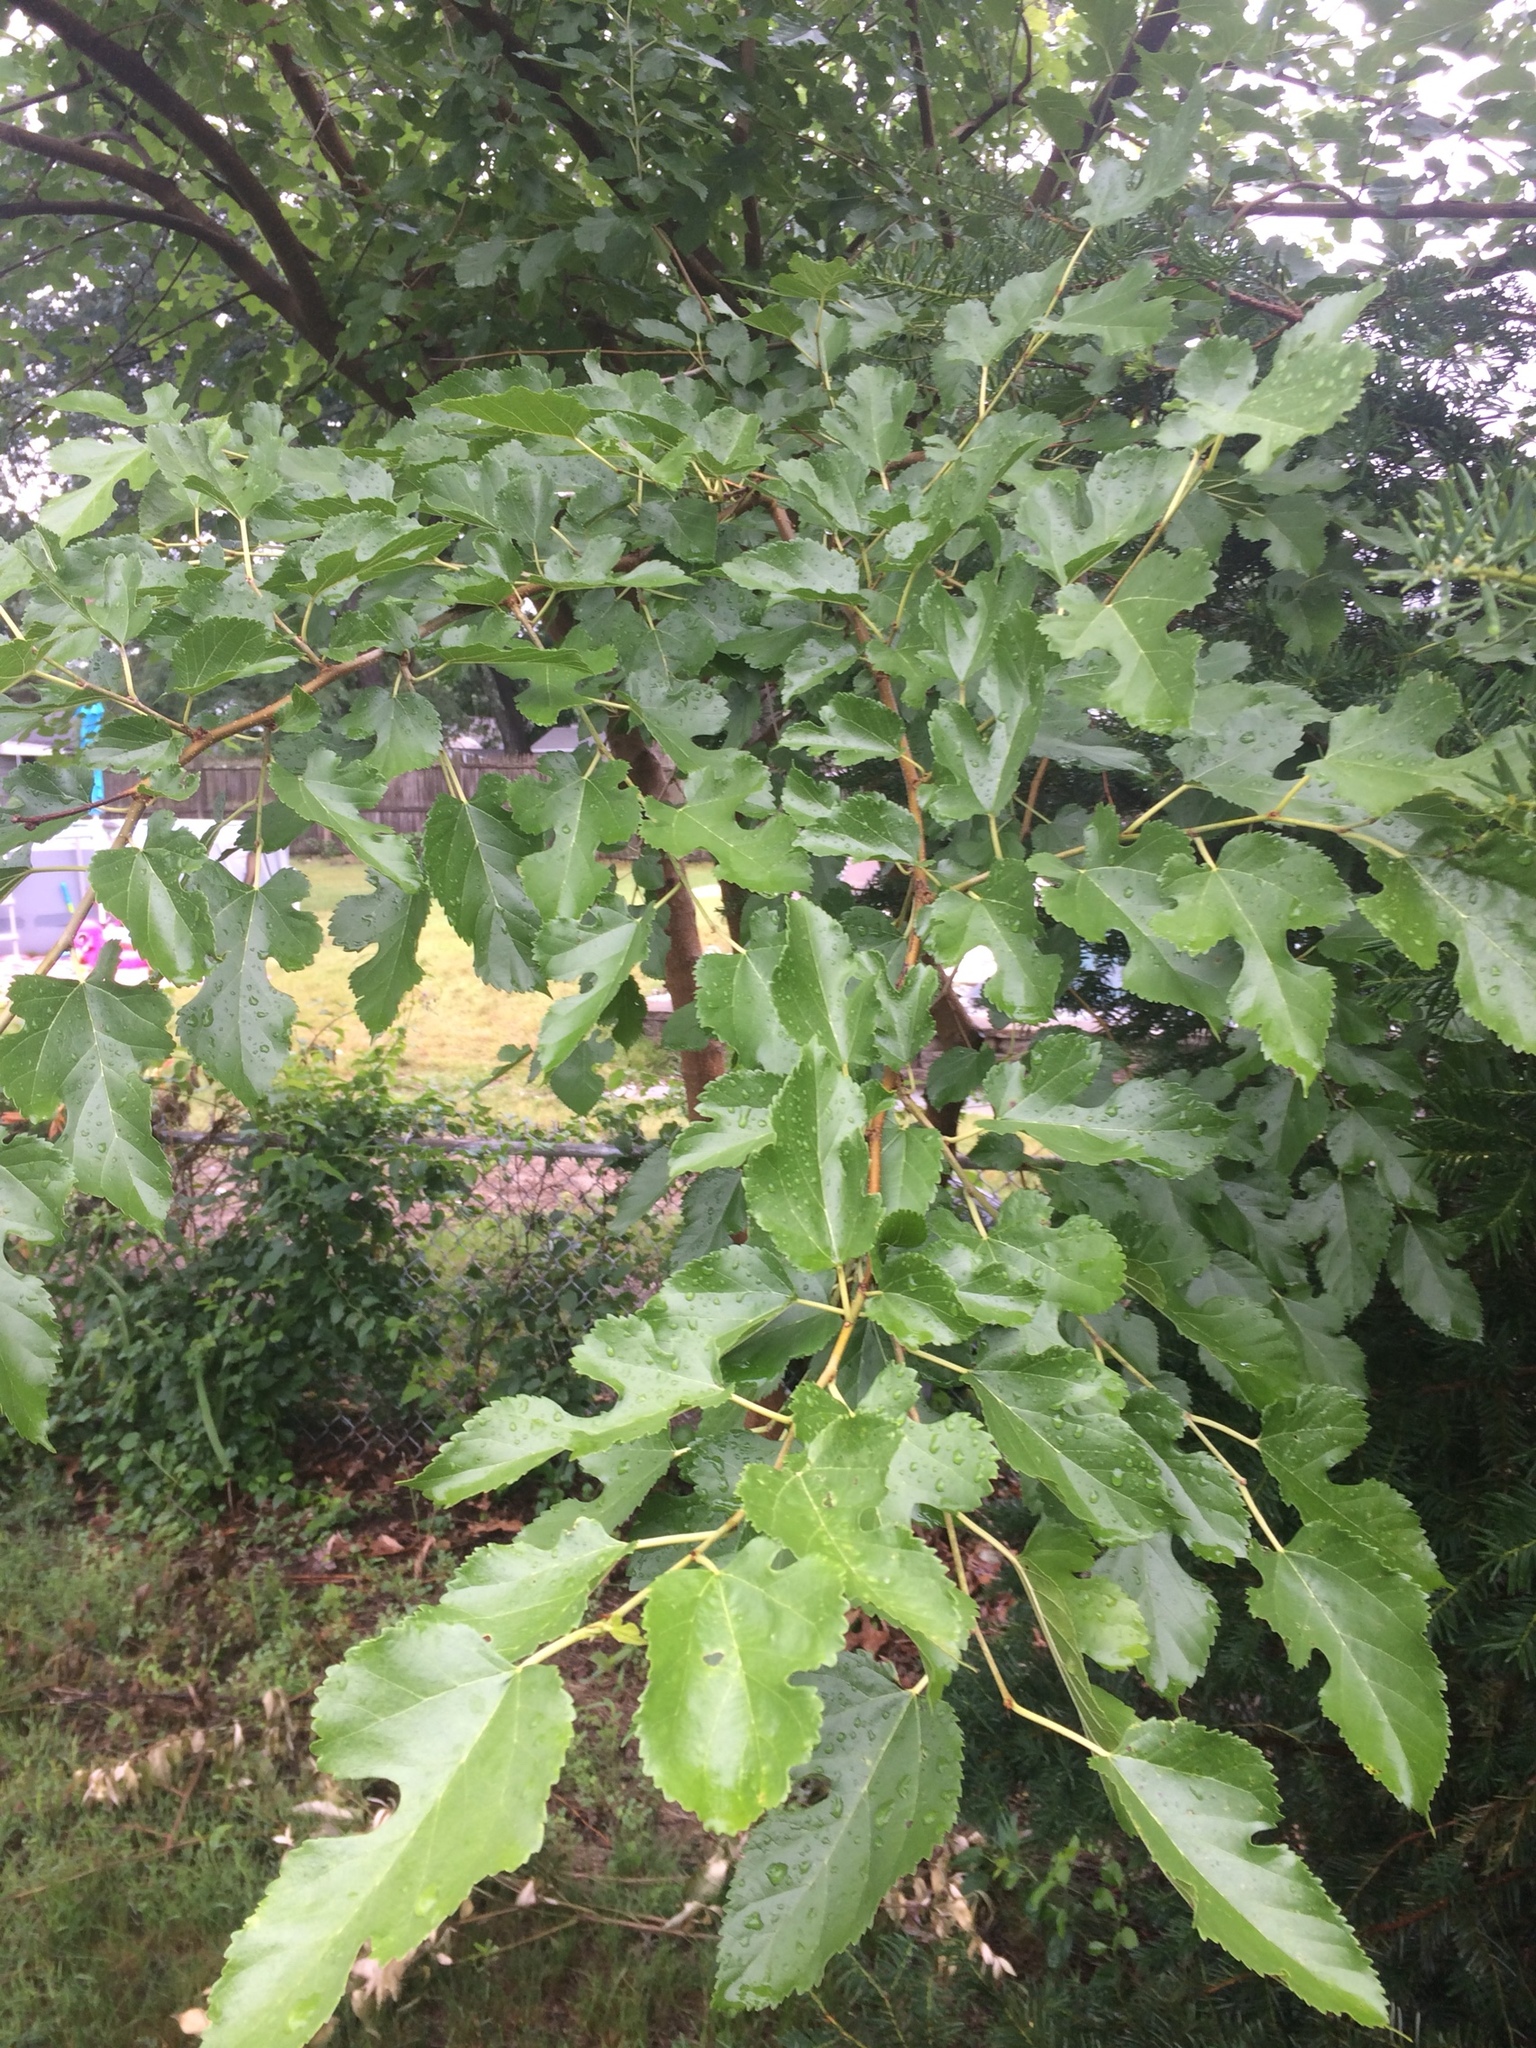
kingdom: Plantae
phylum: Tracheophyta
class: Magnoliopsida
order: Rosales
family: Moraceae
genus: Morus
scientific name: Morus alba
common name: White mulberry
